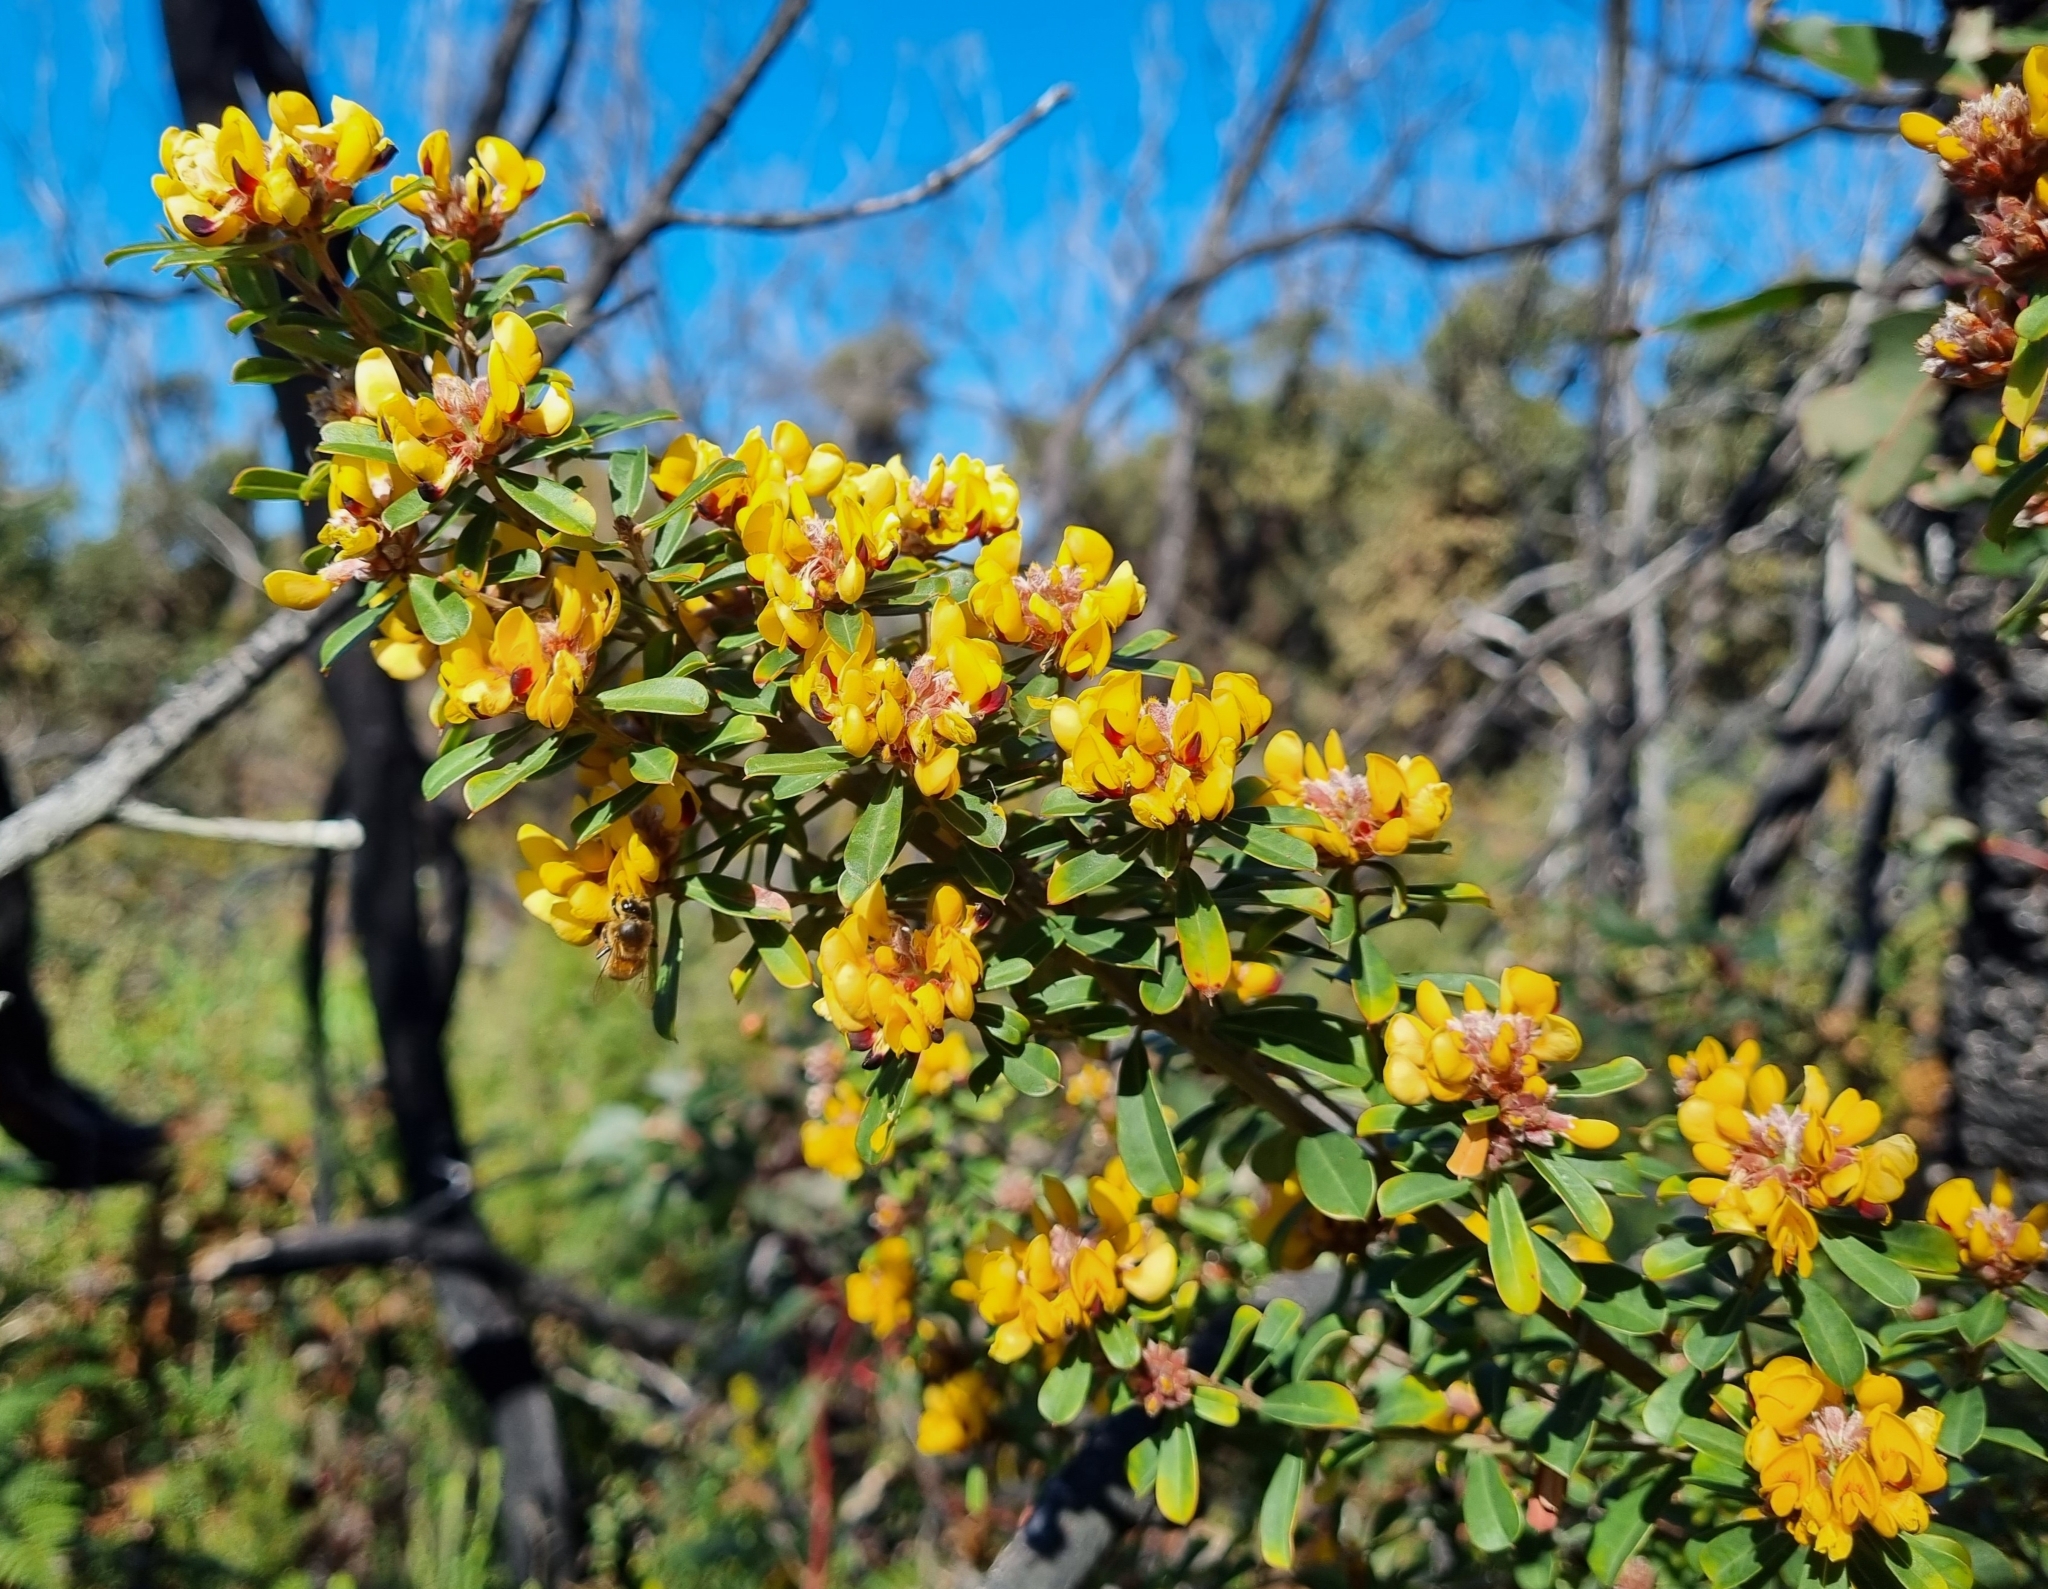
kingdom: Plantae
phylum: Tracheophyta
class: Magnoliopsida
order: Fabales
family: Fabaceae
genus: Pultenaea
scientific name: Pultenaea daphnoides
